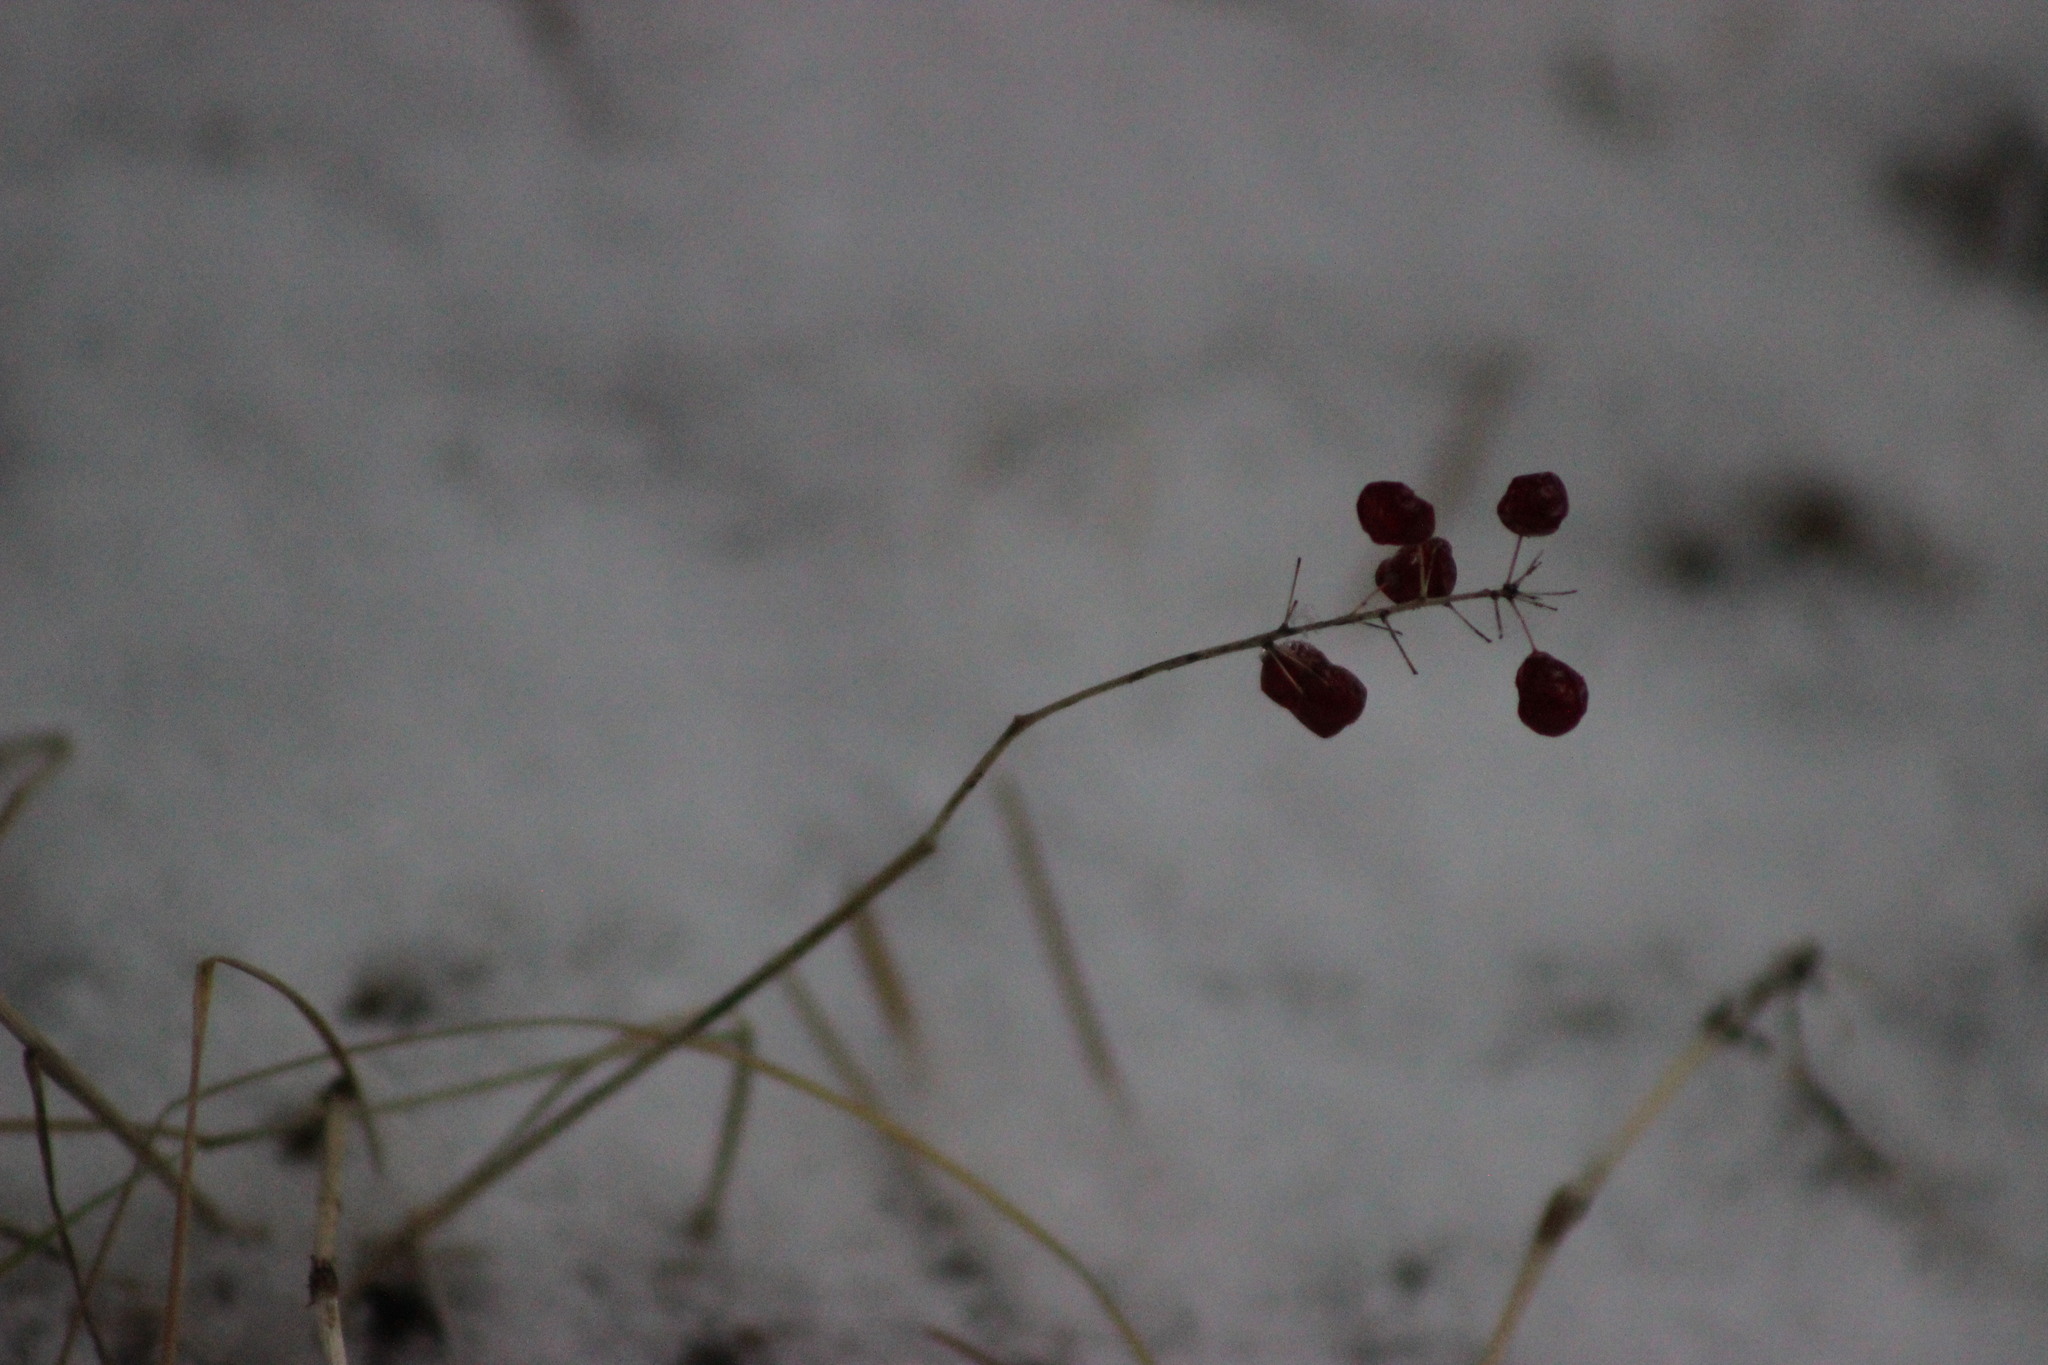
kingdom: Plantae
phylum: Tracheophyta
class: Liliopsida
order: Asparagales
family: Asparagaceae
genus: Maianthemum
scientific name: Maianthemum bifolium
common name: May lily
